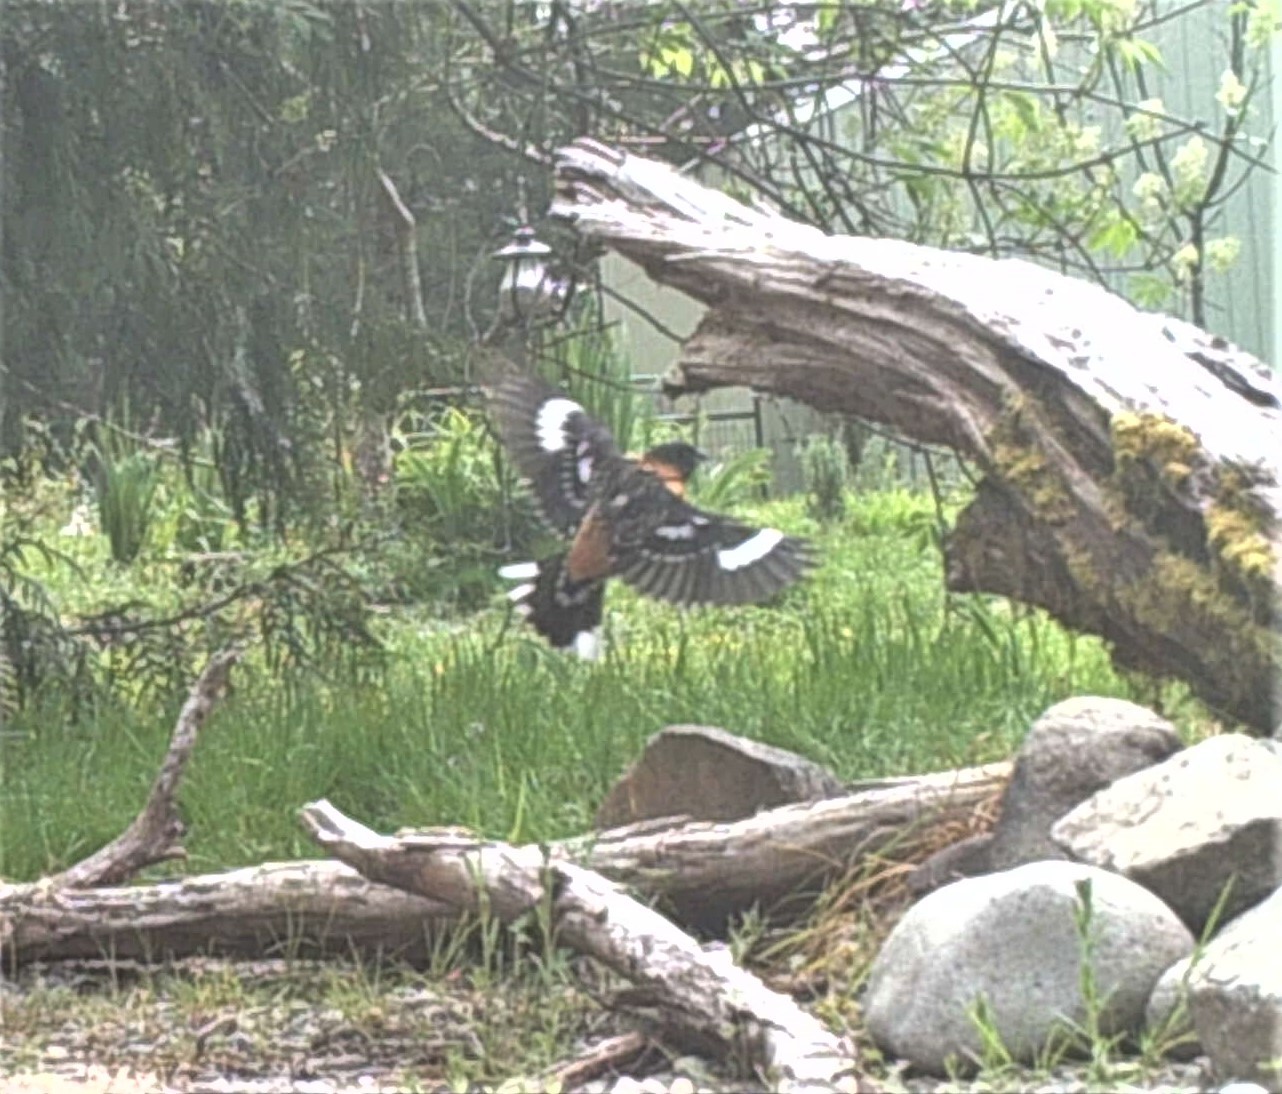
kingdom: Animalia
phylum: Chordata
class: Aves
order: Passeriformes
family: Cardinalidae
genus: Pheucticus
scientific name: Pheucticus melanocephalus
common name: Black-headed grosbeak
